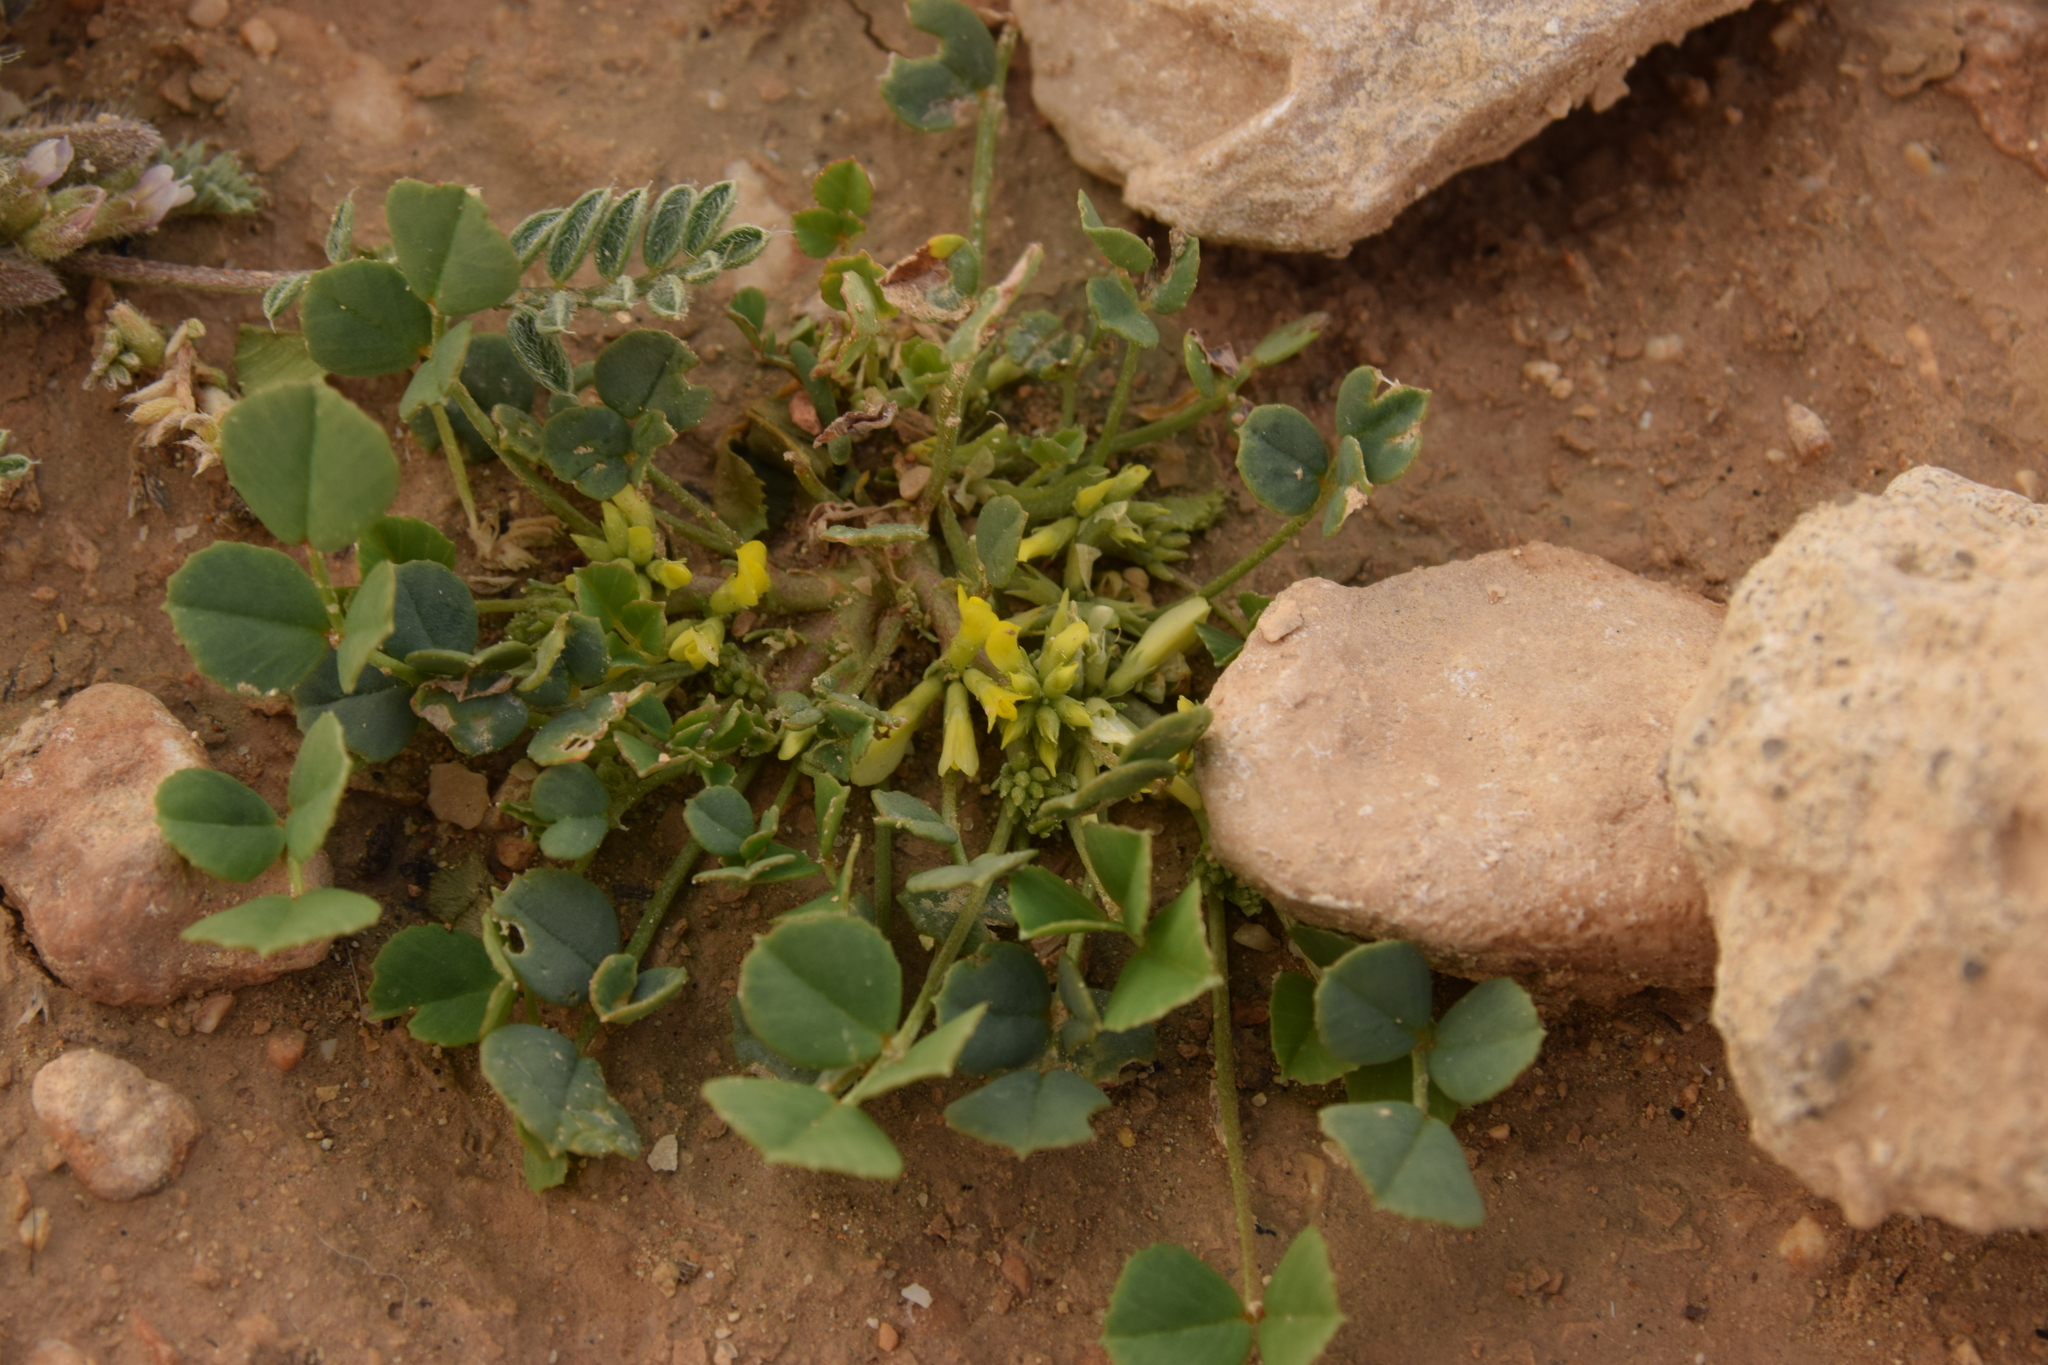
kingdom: Plantae
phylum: Tracheophyta
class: Magnoliopsida
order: Fabales
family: Fabaceae
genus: Trigonella
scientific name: Trigonella stellata
